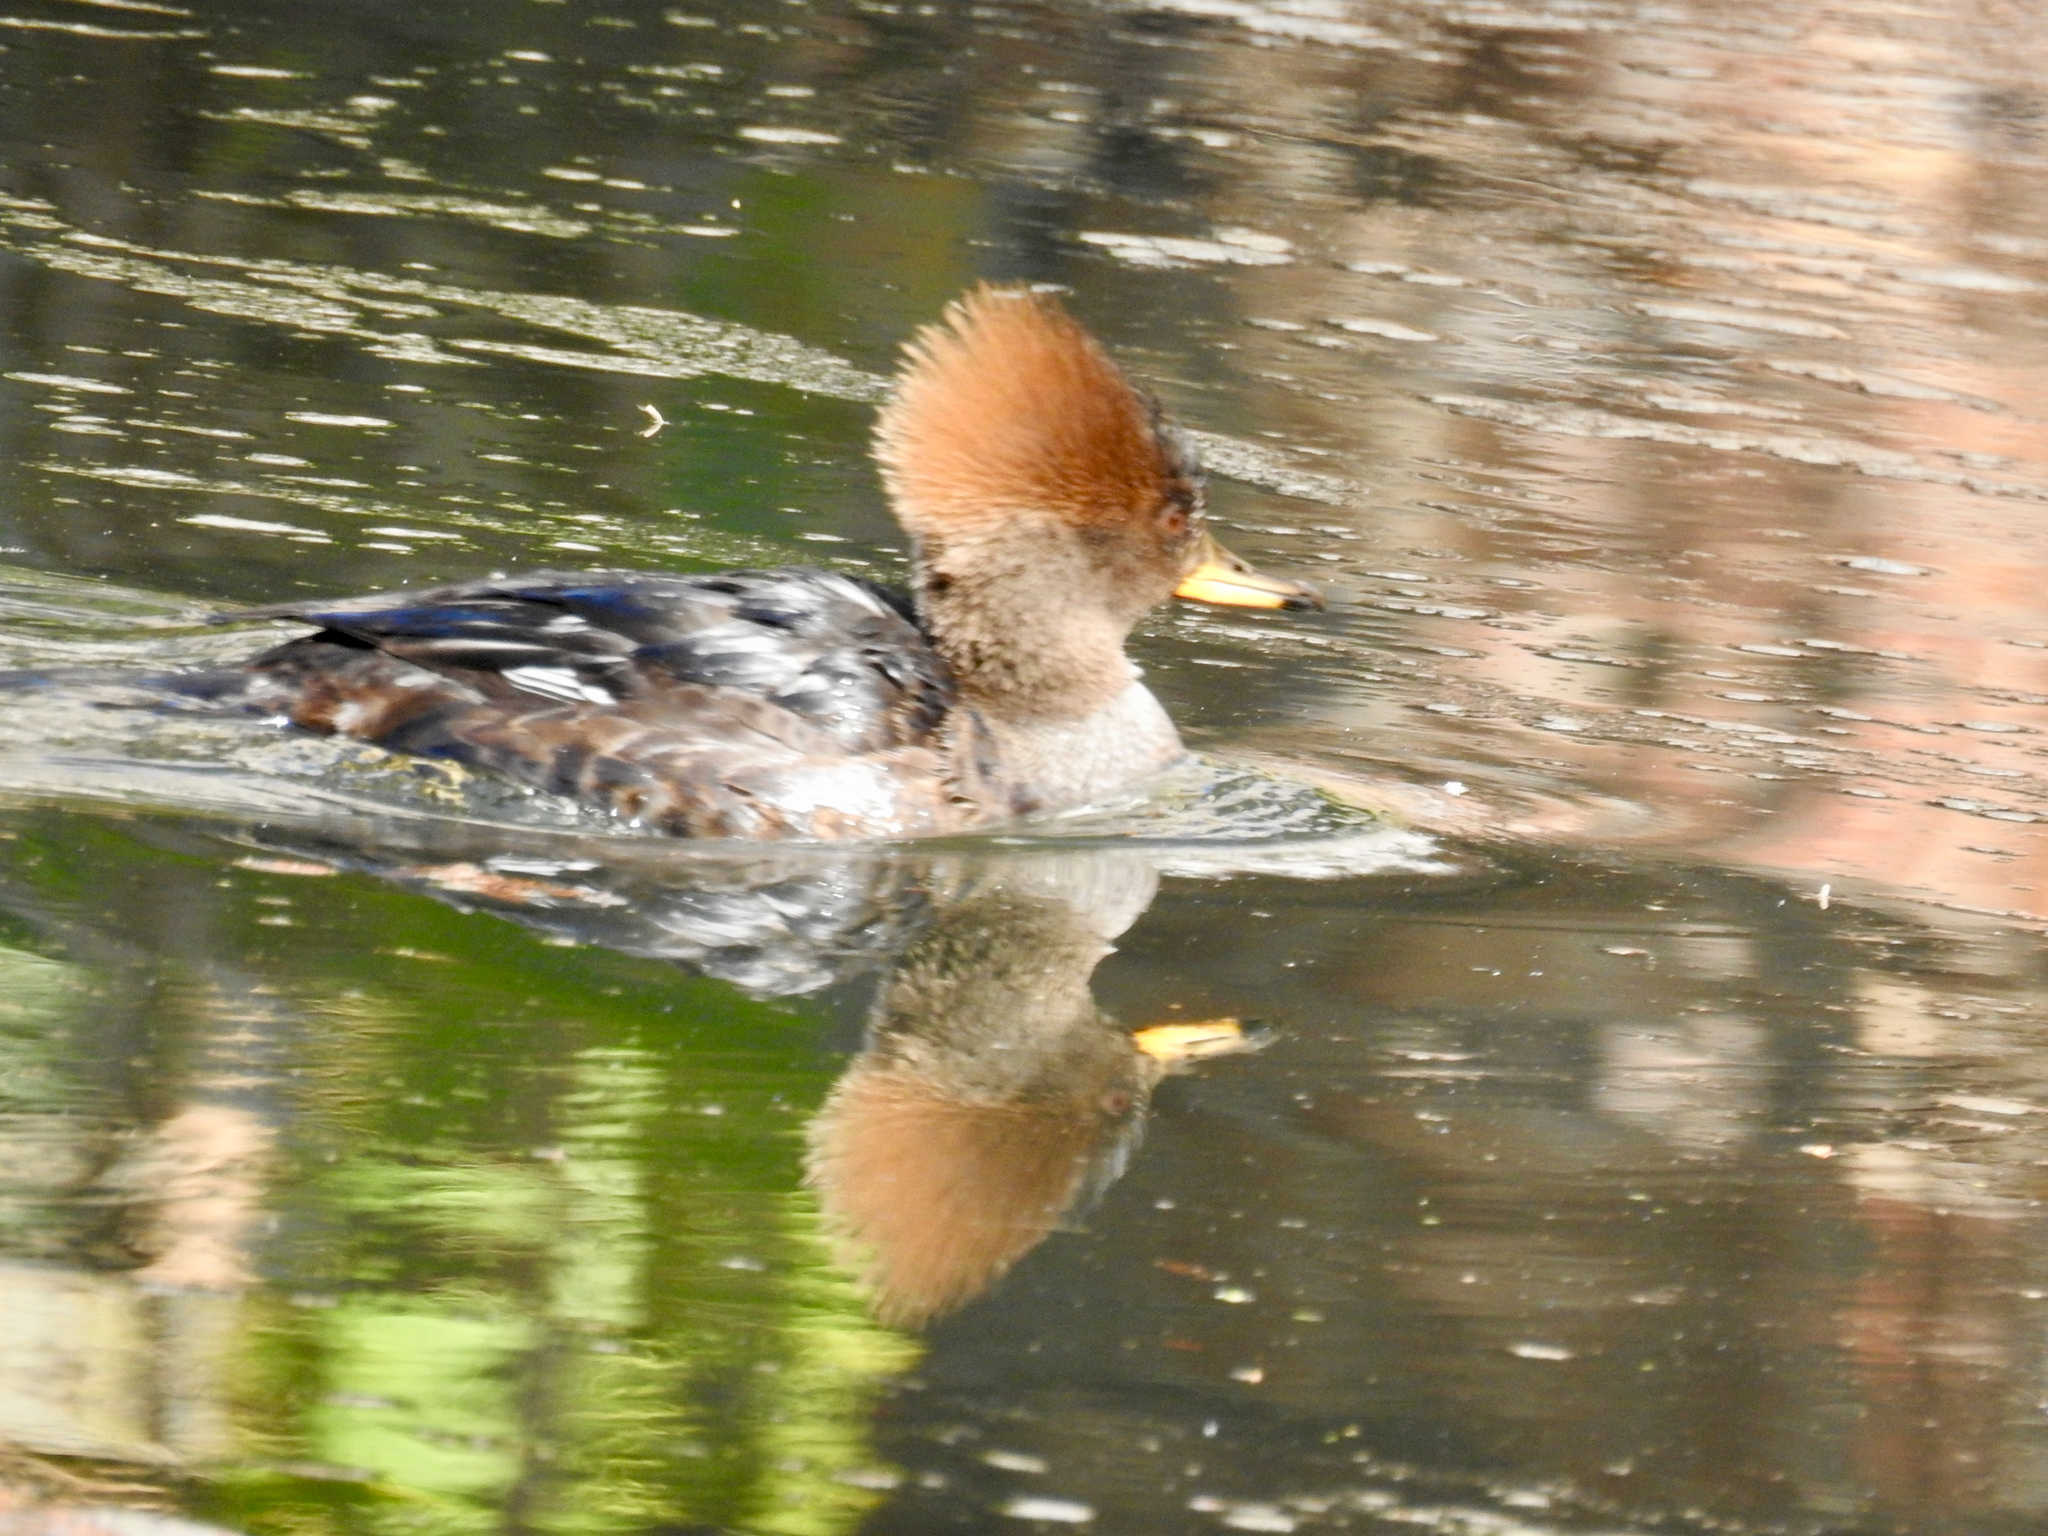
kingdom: Animalia
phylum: Chordata
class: Aves
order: Anseriformes
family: Anatidae
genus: Lophodytes
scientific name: Lophodytes cucullatus
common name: Hooded merganser
